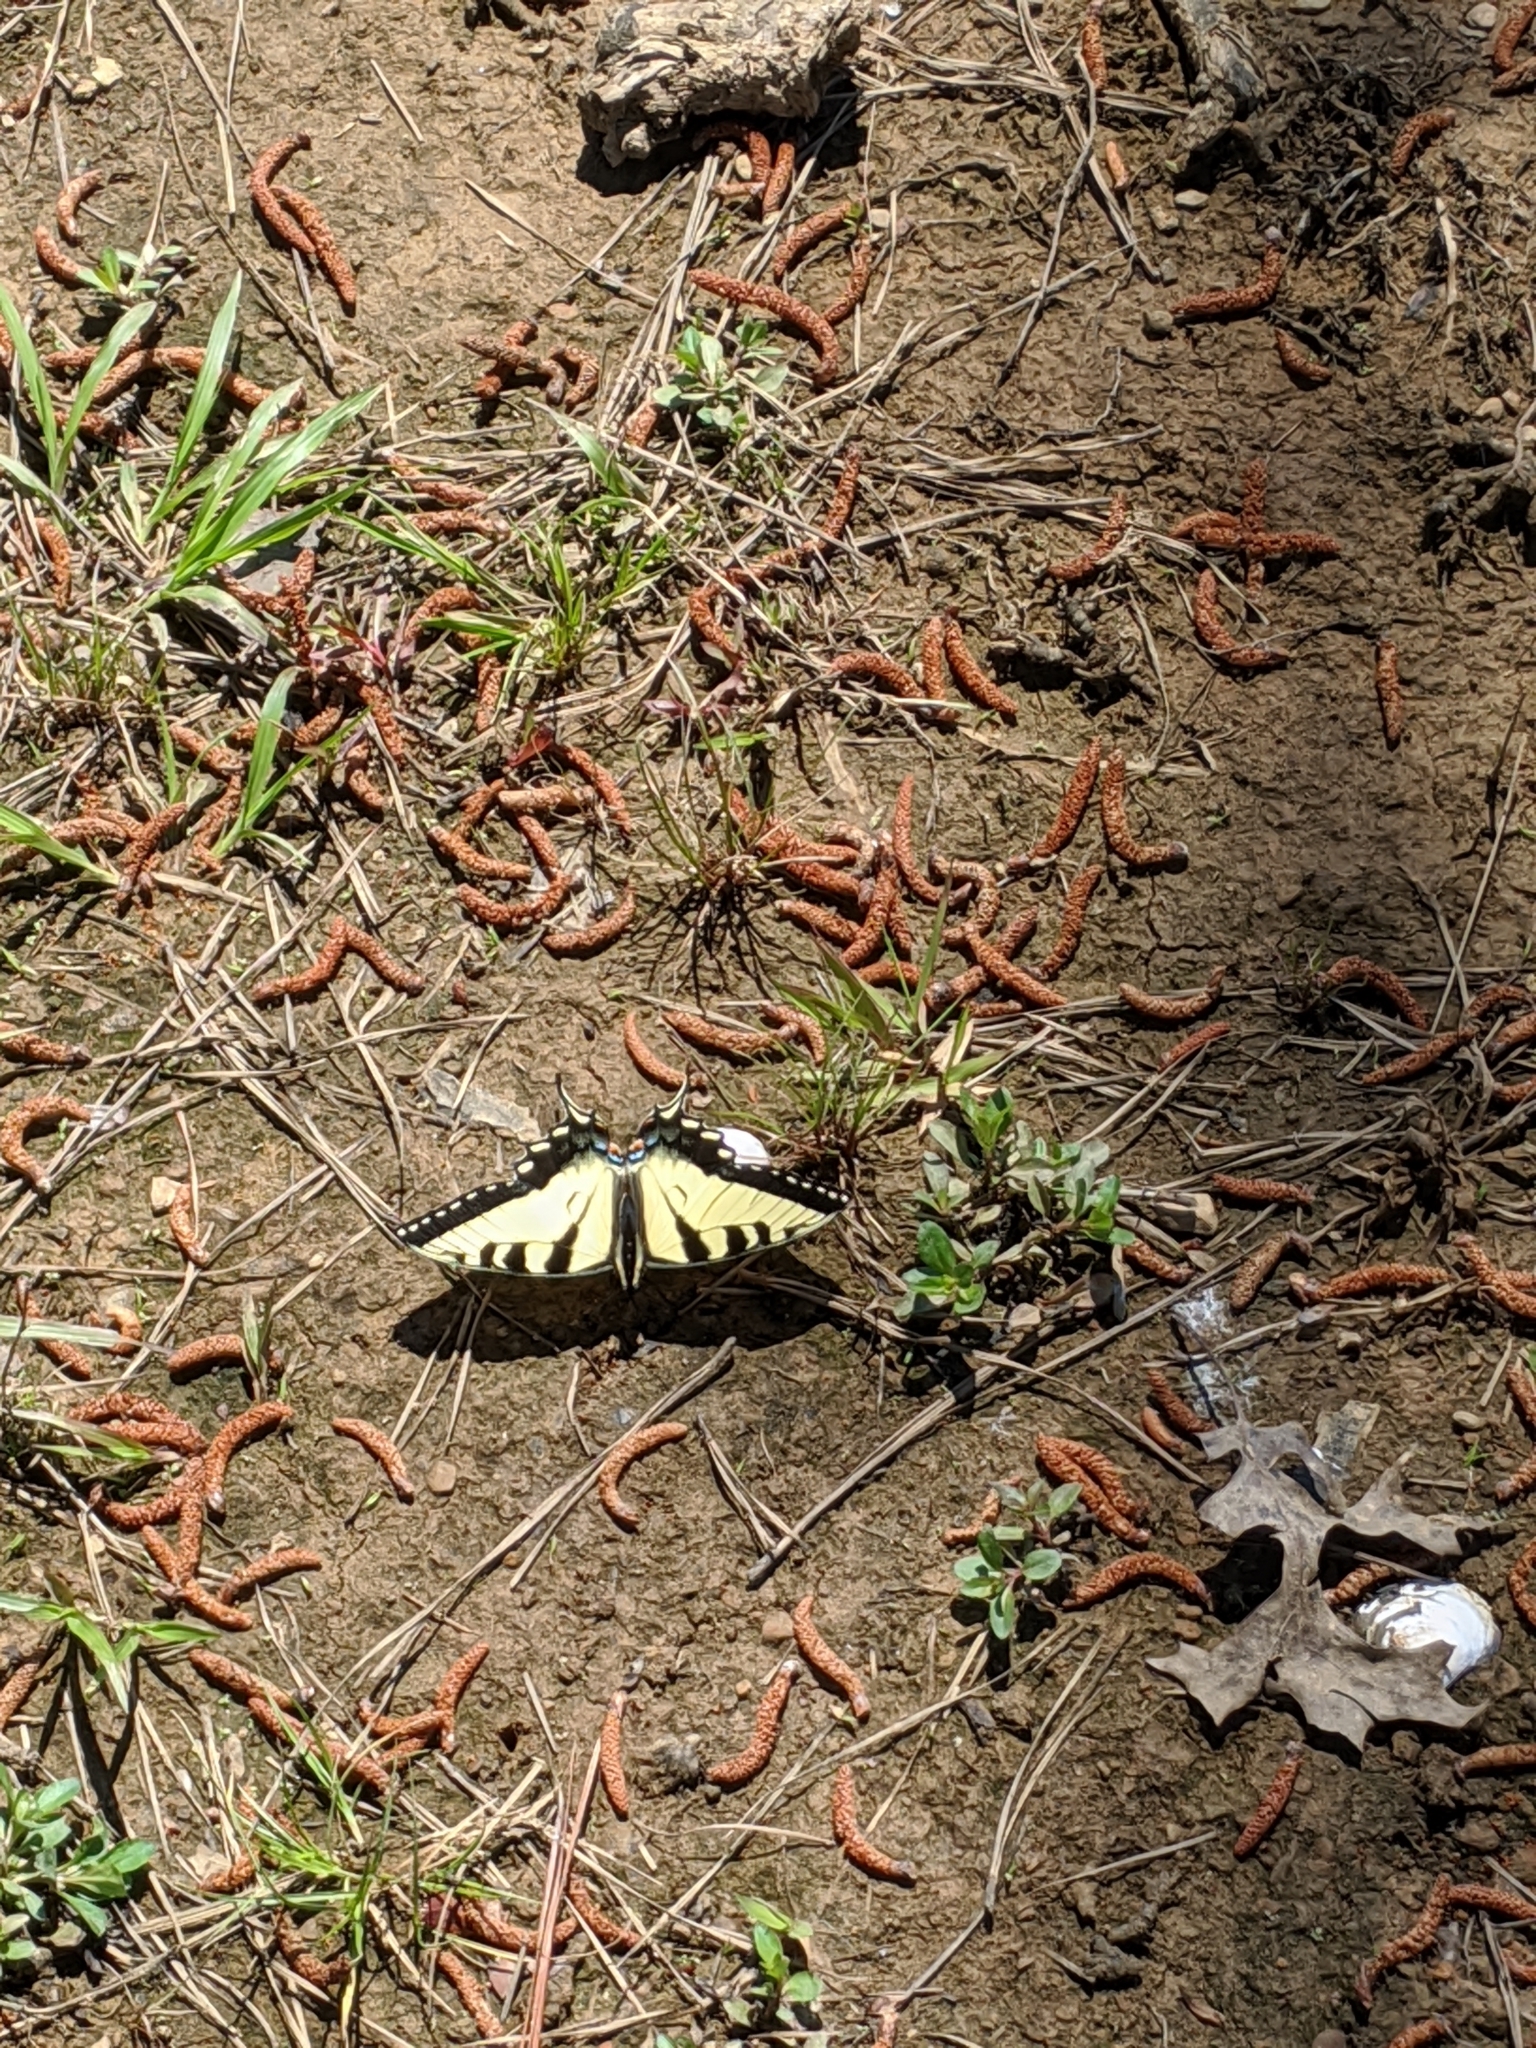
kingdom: Animalia
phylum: Arthropoda
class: Insecta
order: Lepidoptera
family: Papilionidae
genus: Papilio
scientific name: Papilio glaucus
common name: Tiger swallowtail
